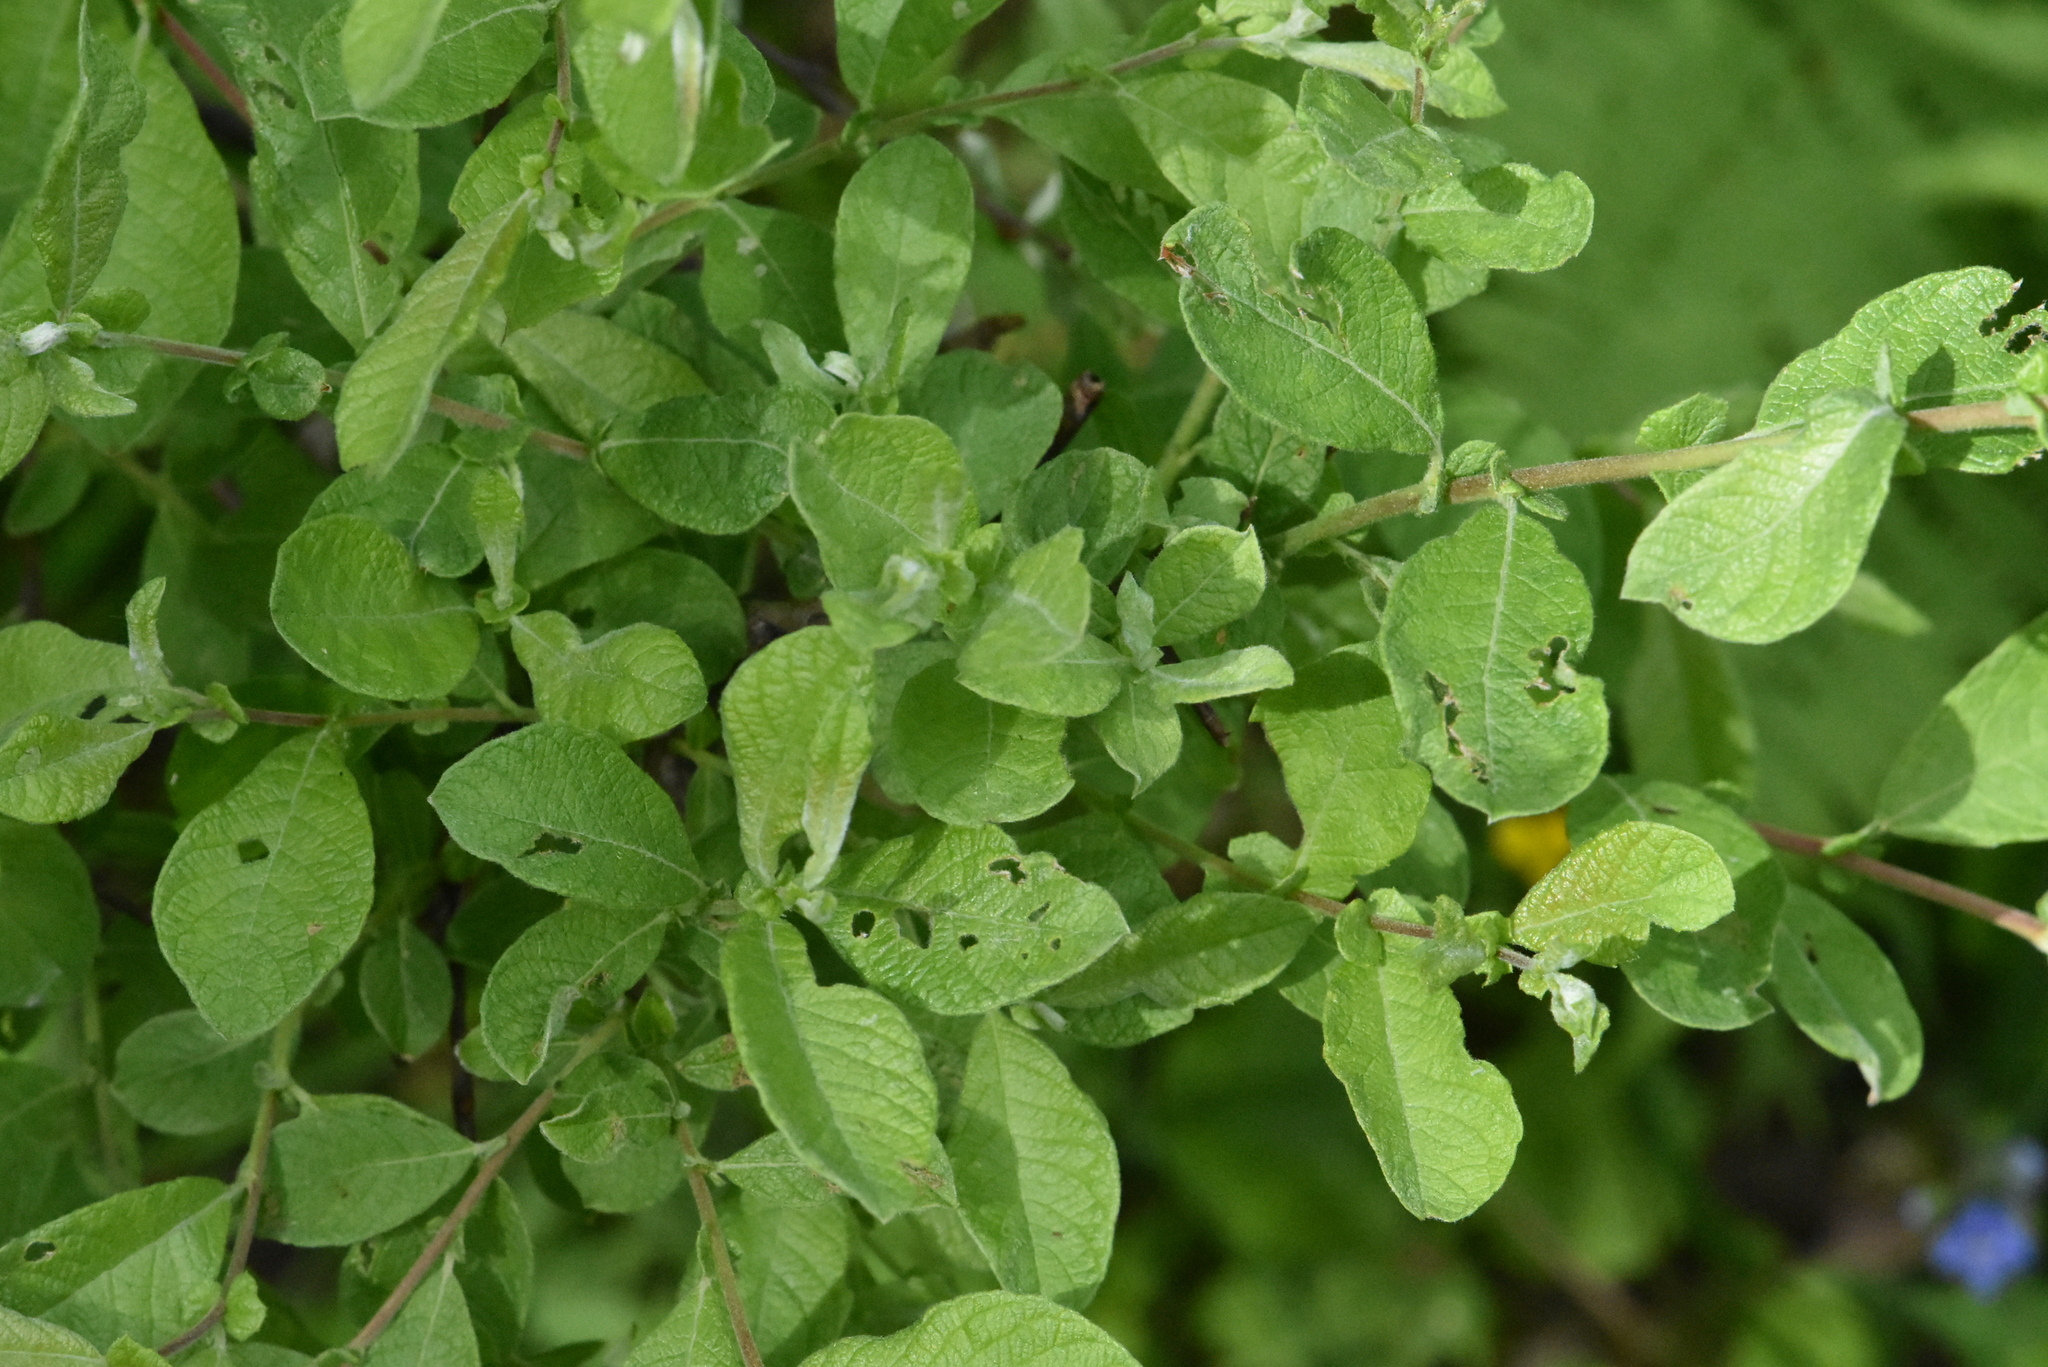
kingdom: Plantae
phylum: Tracheophyta
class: Magnoliopsida
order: Malpighiales
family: Salicaceae
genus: Salix
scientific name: Salix aurita
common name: Eared willow
